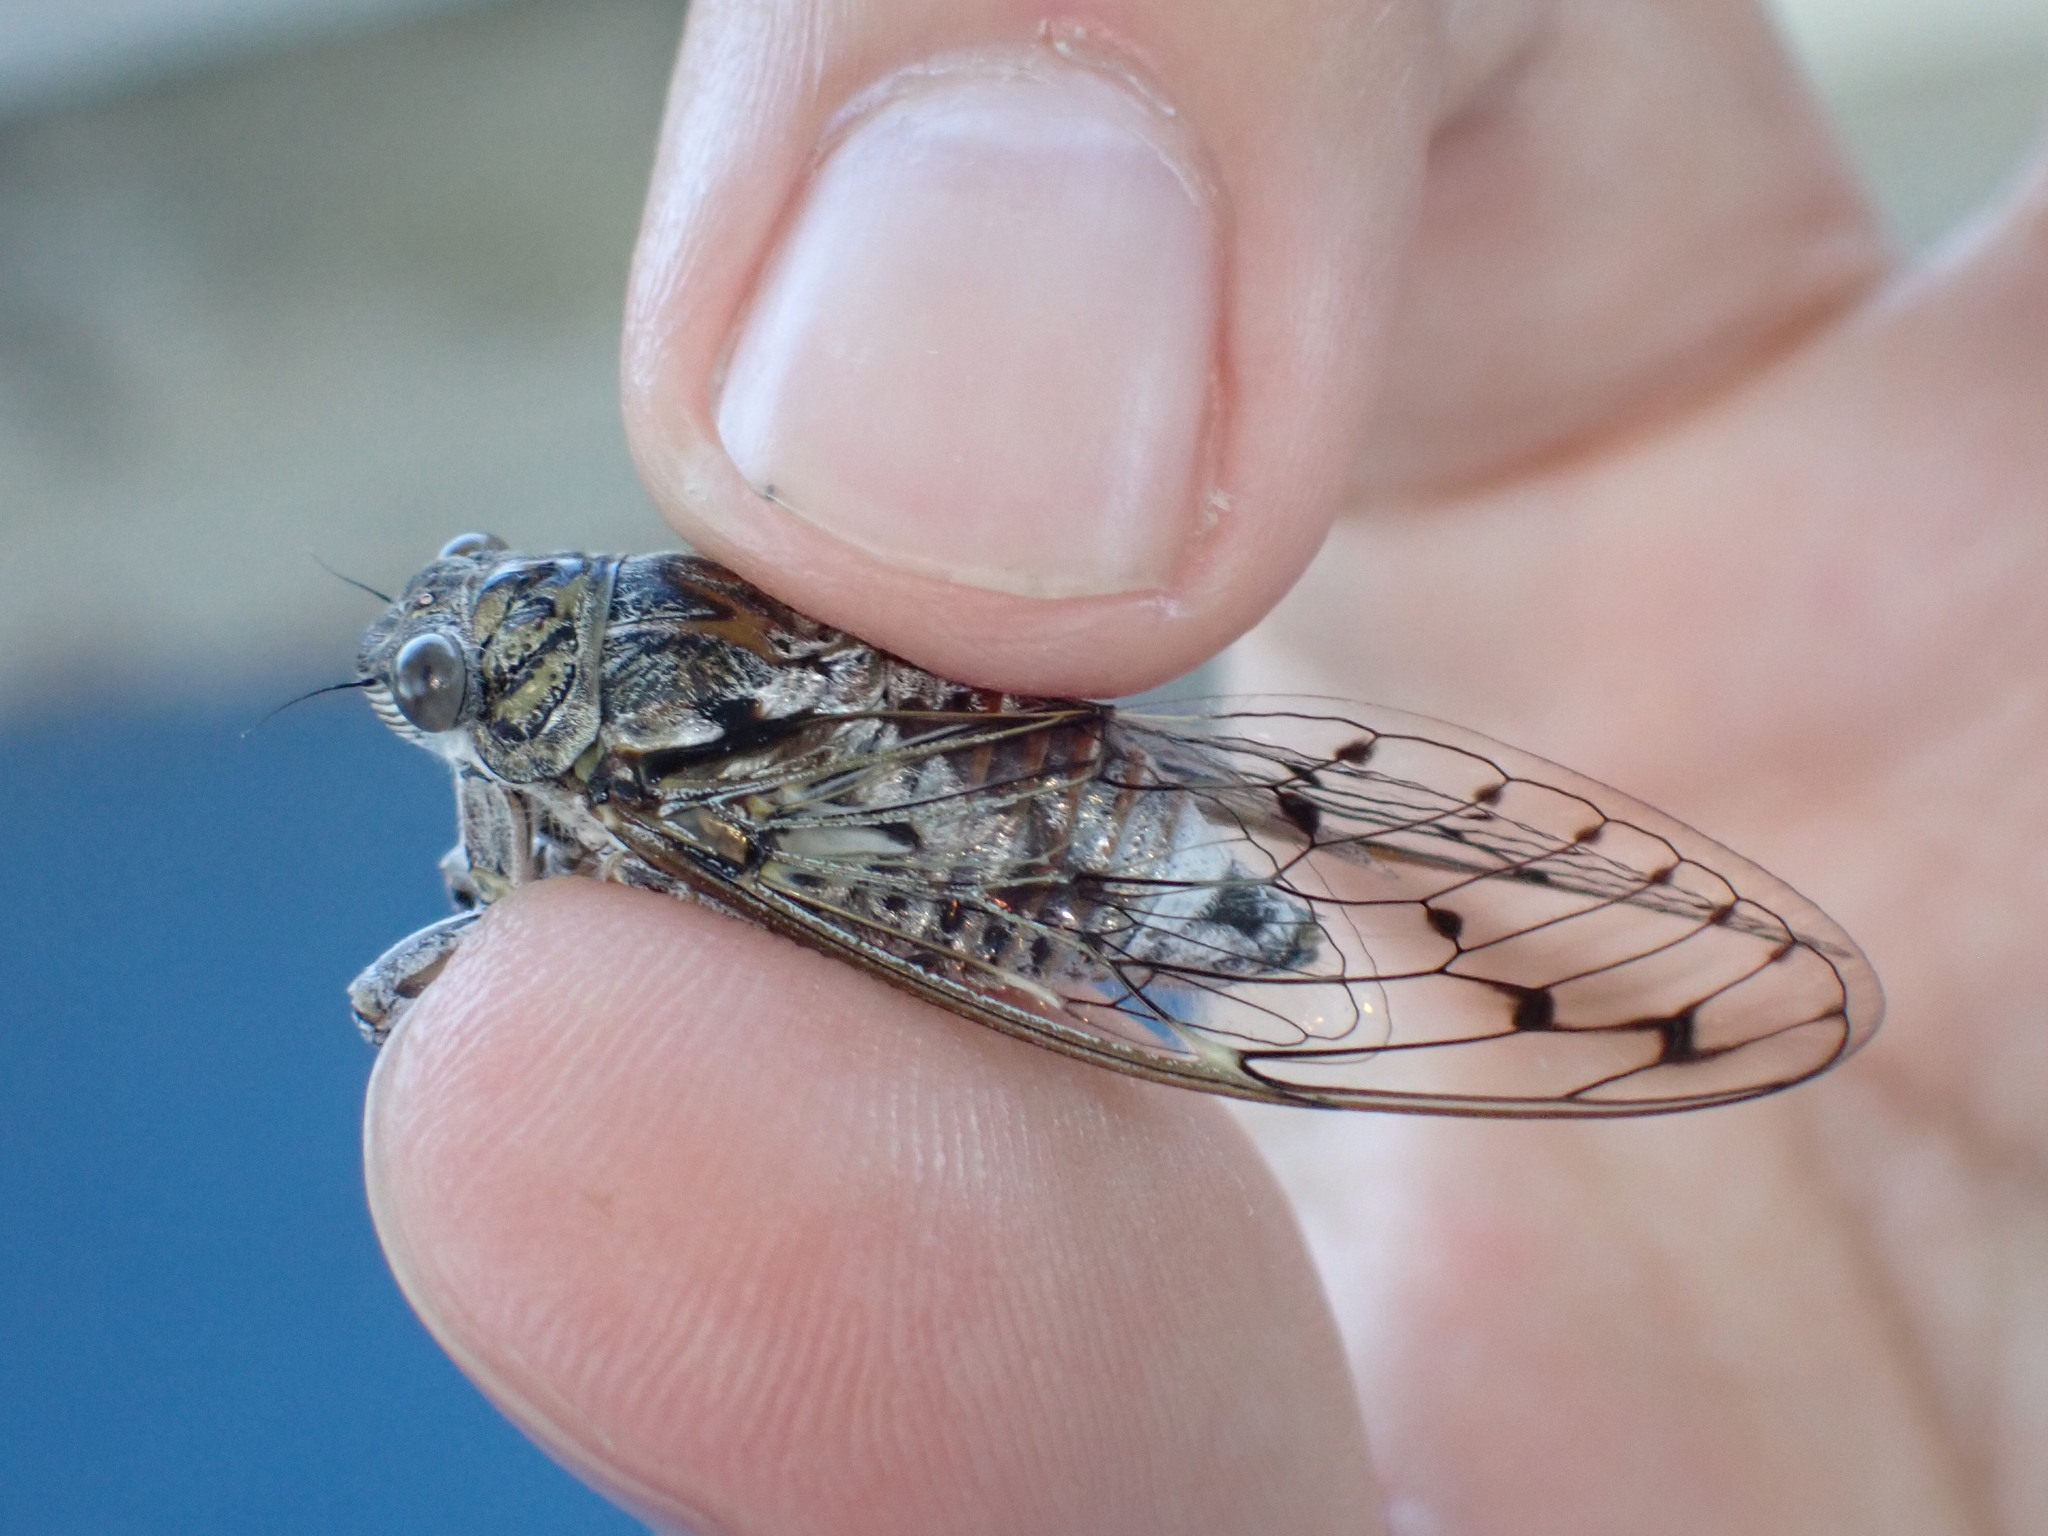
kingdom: Animalia
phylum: Arthropoda
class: Insecta
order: Hemiptera
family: Cicadidae
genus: Cicada
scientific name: Cicada orni
